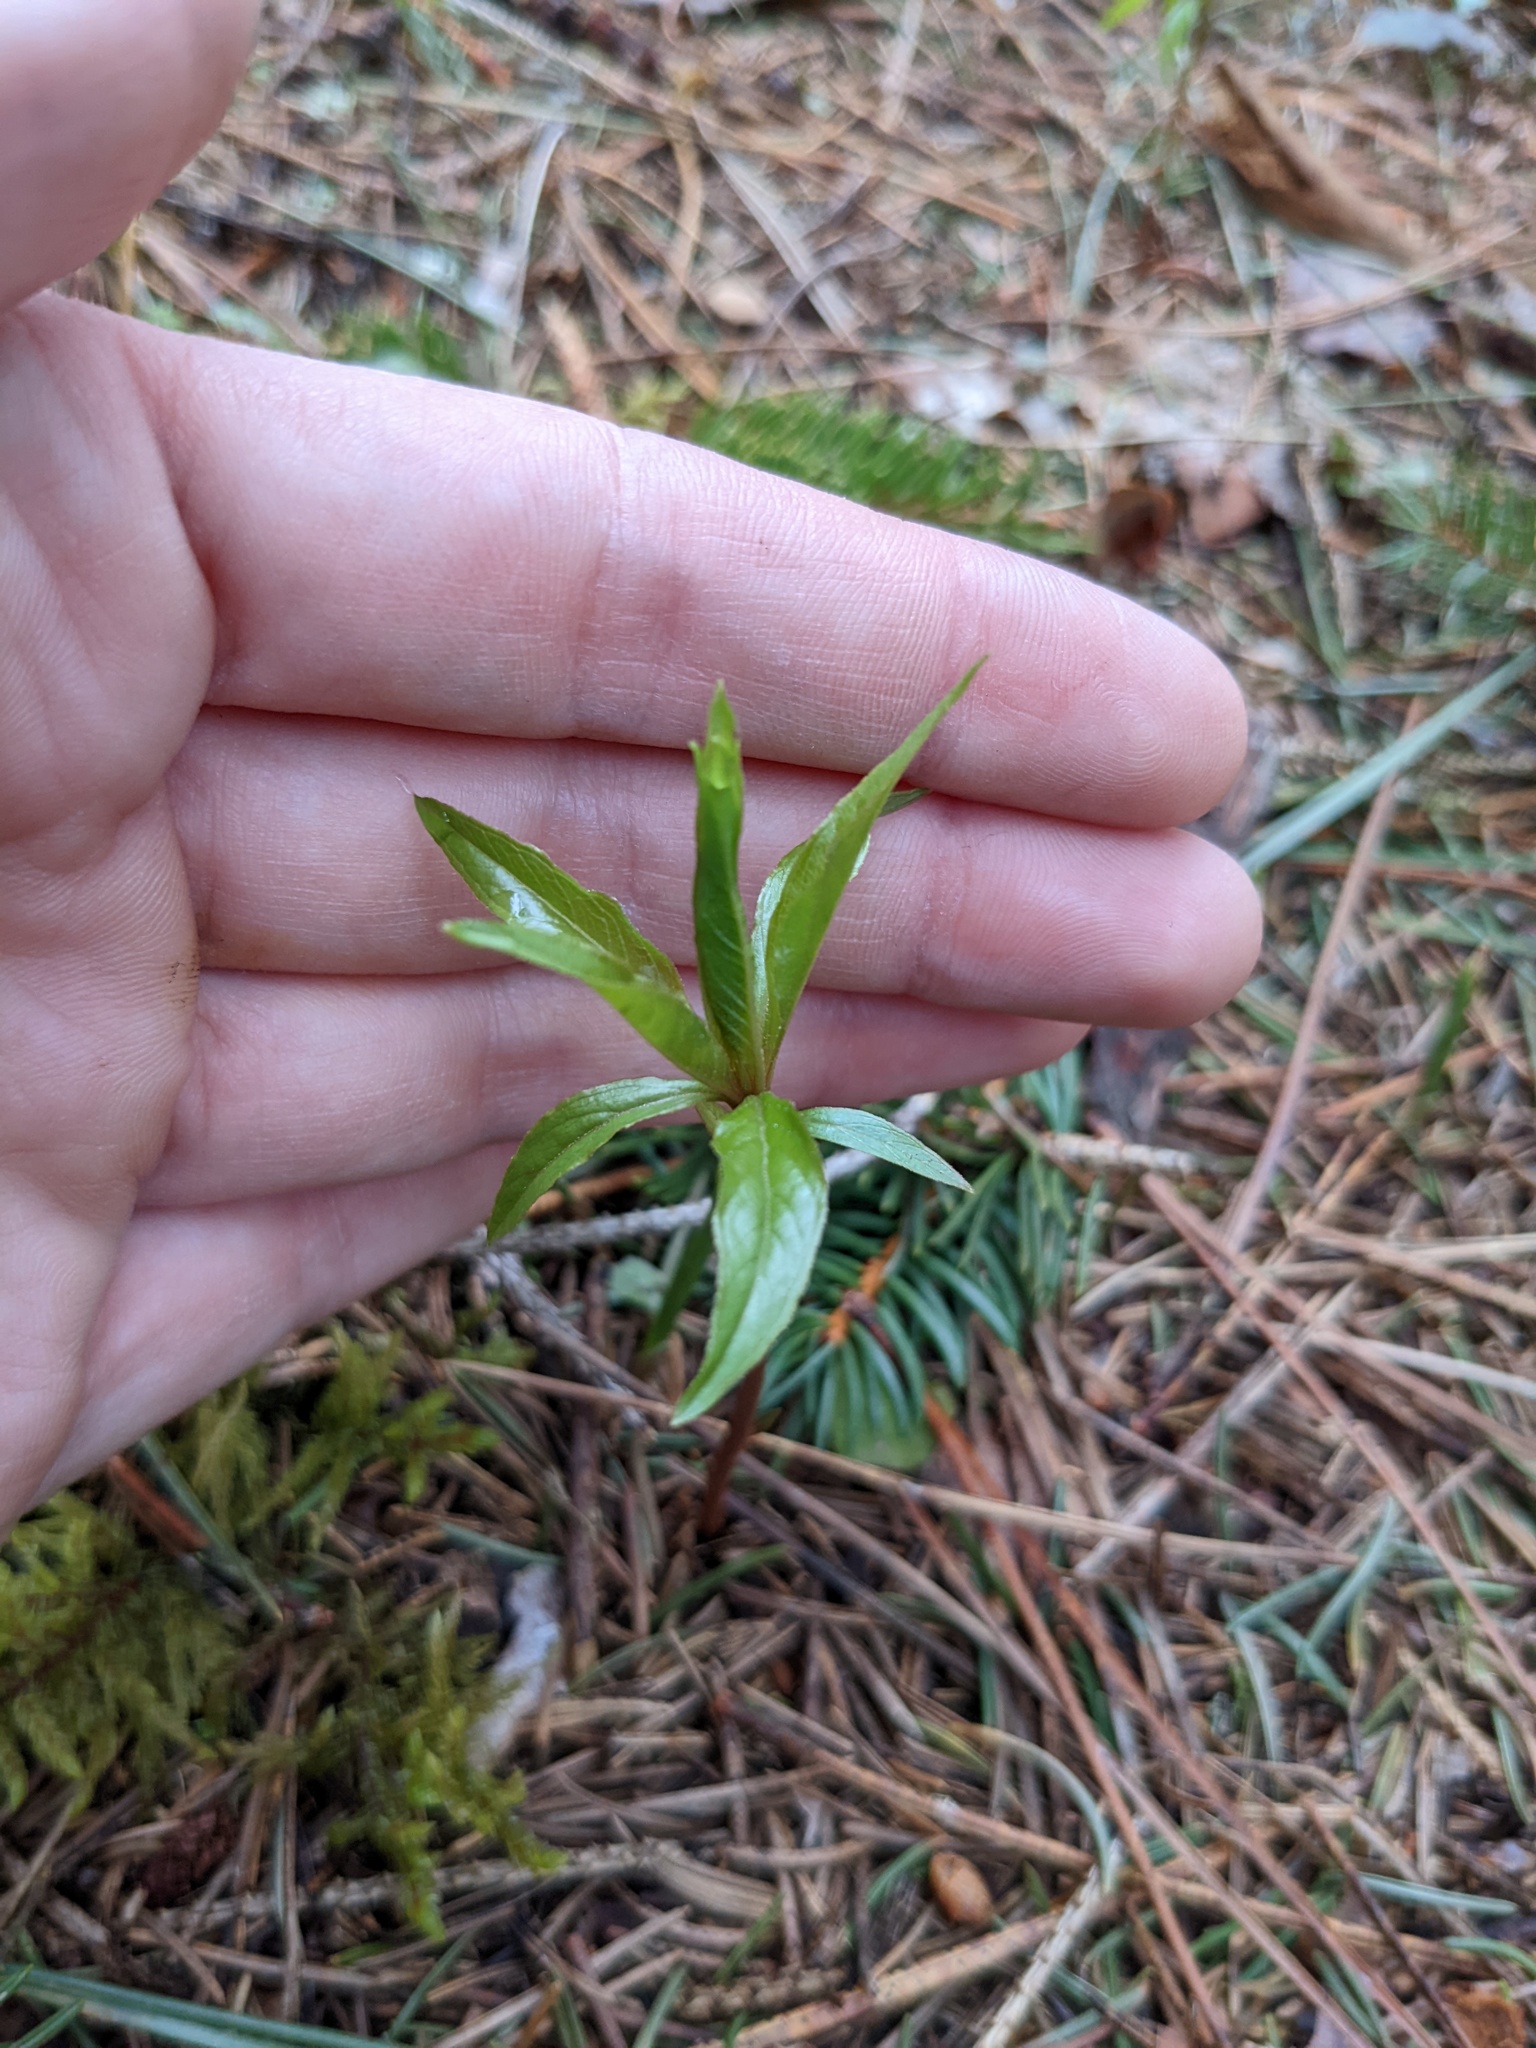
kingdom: Plantae
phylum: Tracheophyta
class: Magnoliopsida
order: Ericales
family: Primulaceae
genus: Lysimachia
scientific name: Lysimachia borealis
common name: American starflower
